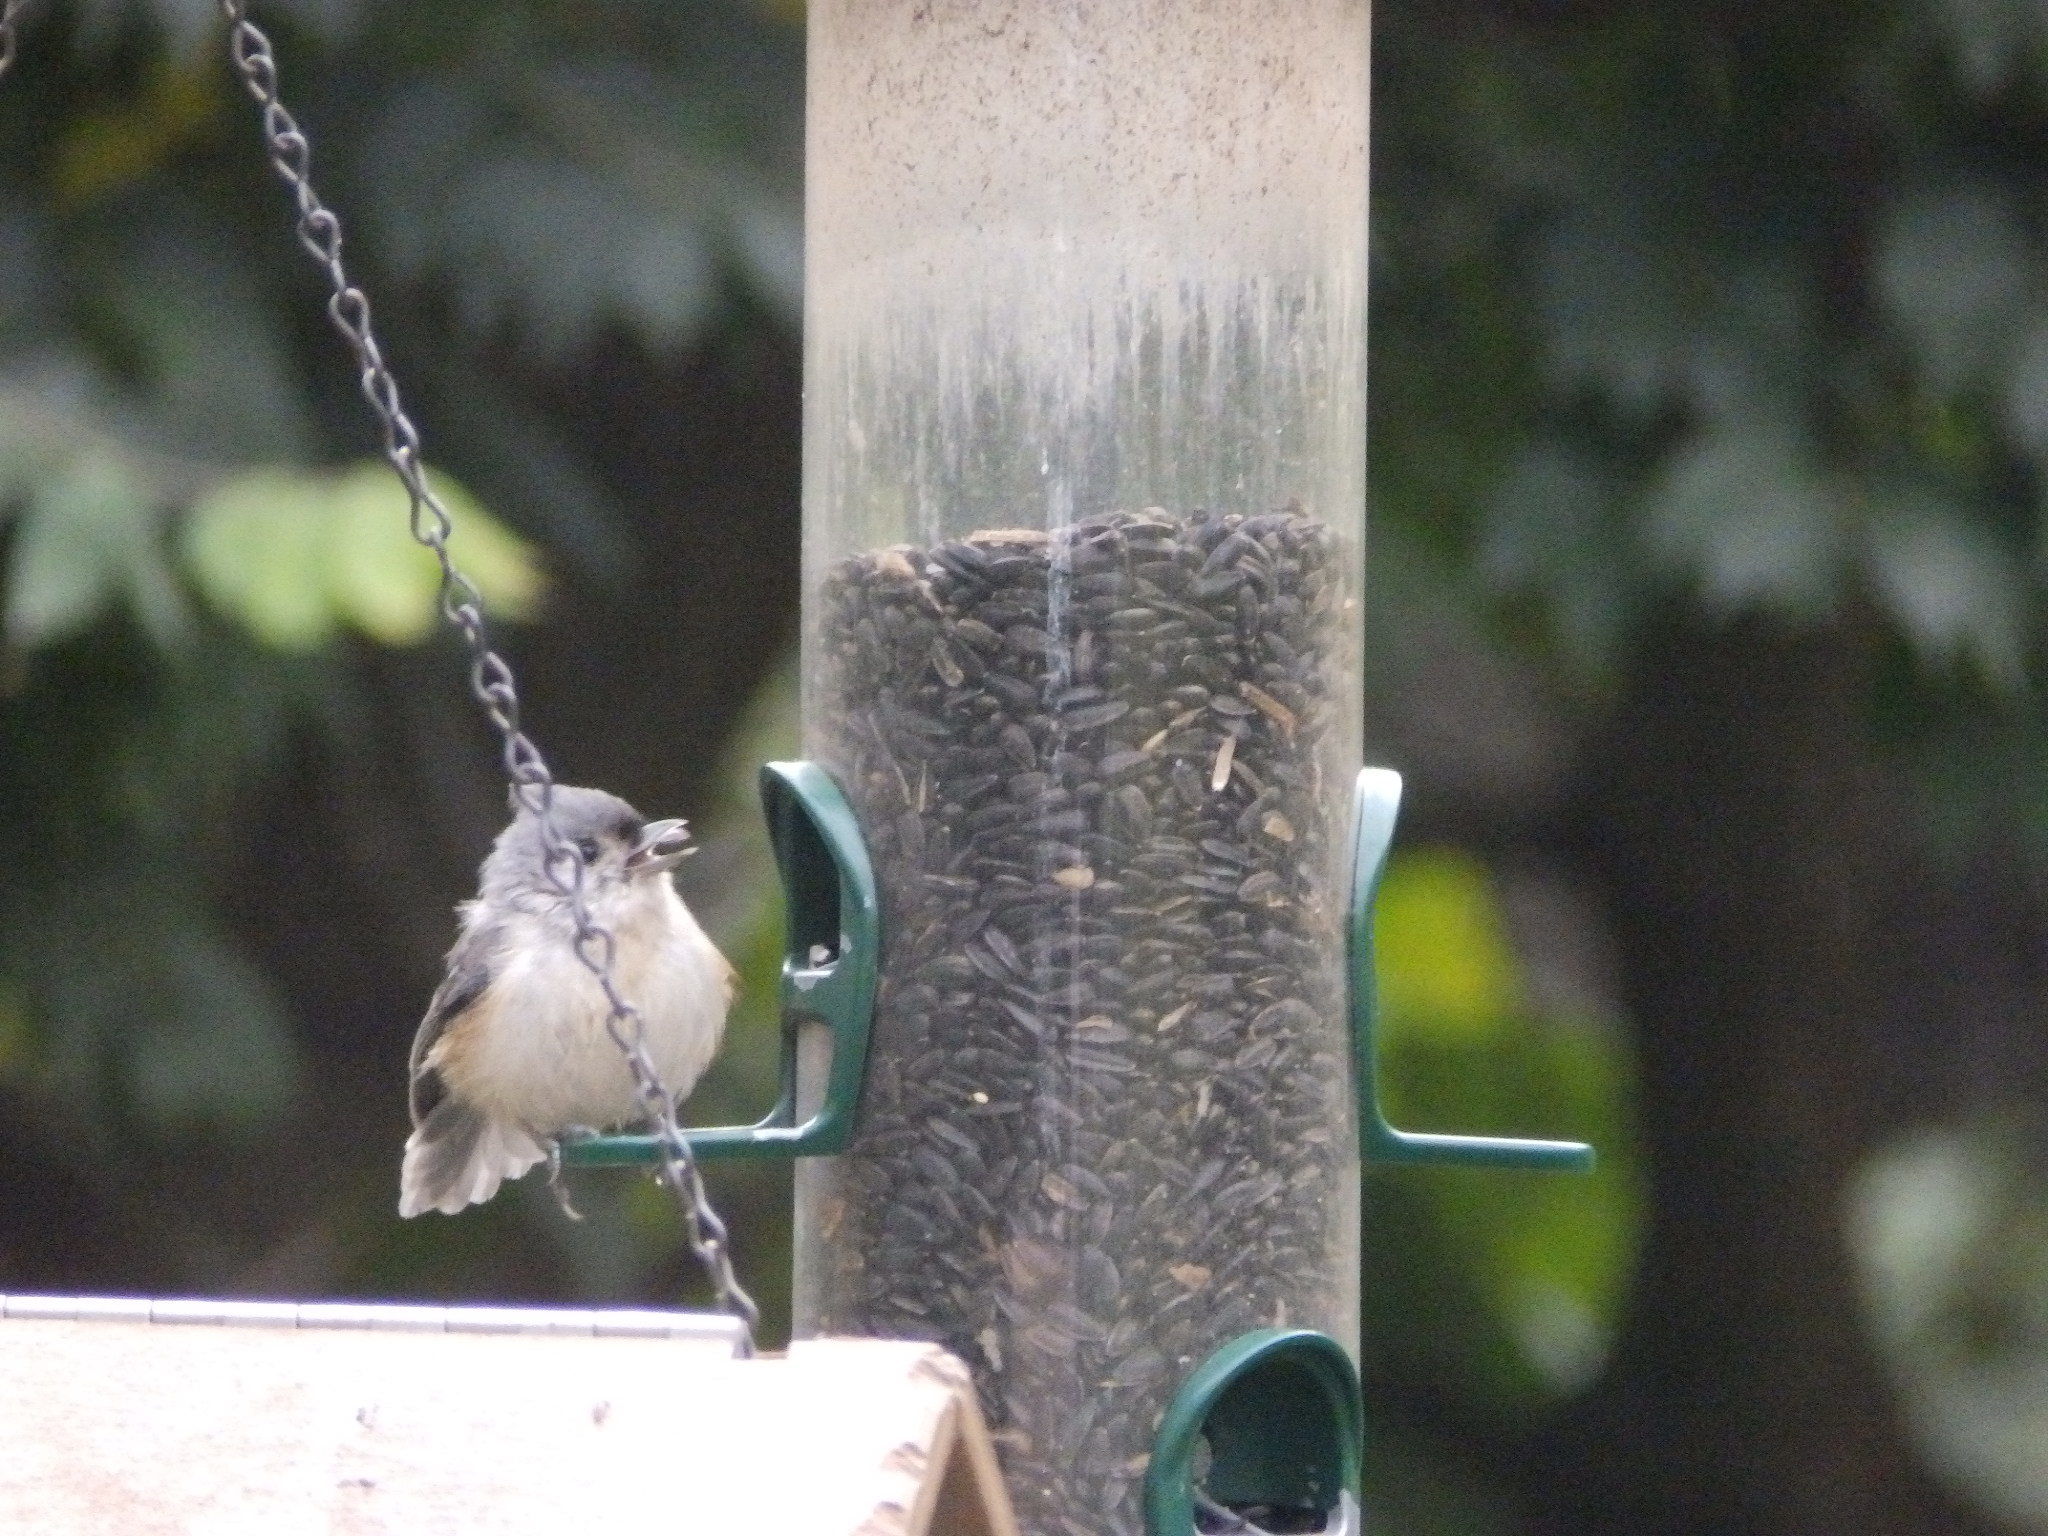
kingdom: Animalia
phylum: Chordata
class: Aves
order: Passeriformes
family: Paridae
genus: Baeolophus
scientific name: Baeolophus bicolor
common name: Tufted titmouse
